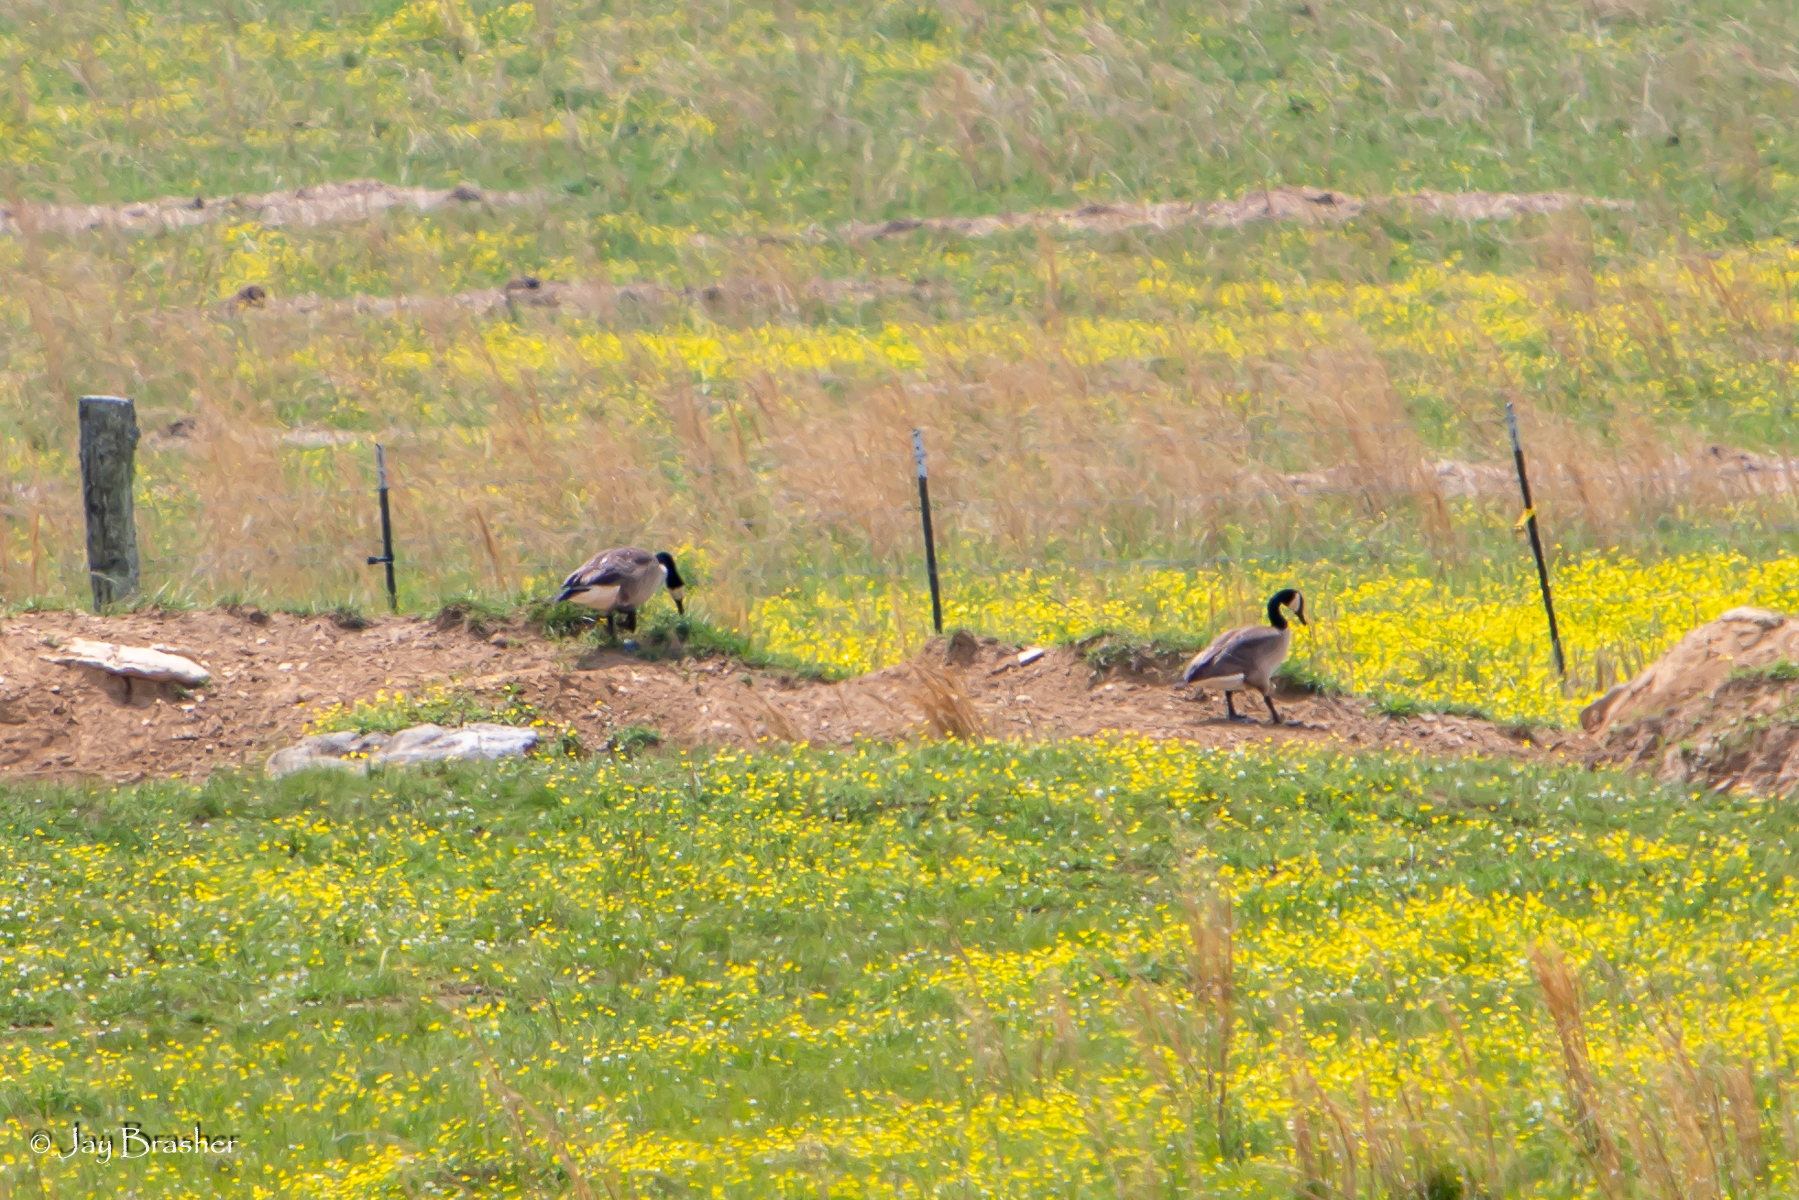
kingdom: Animalia
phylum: Chordata
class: Aves
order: Anseriformes
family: Anatidae
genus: Branta
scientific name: Branta canadensis
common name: Canada goose
